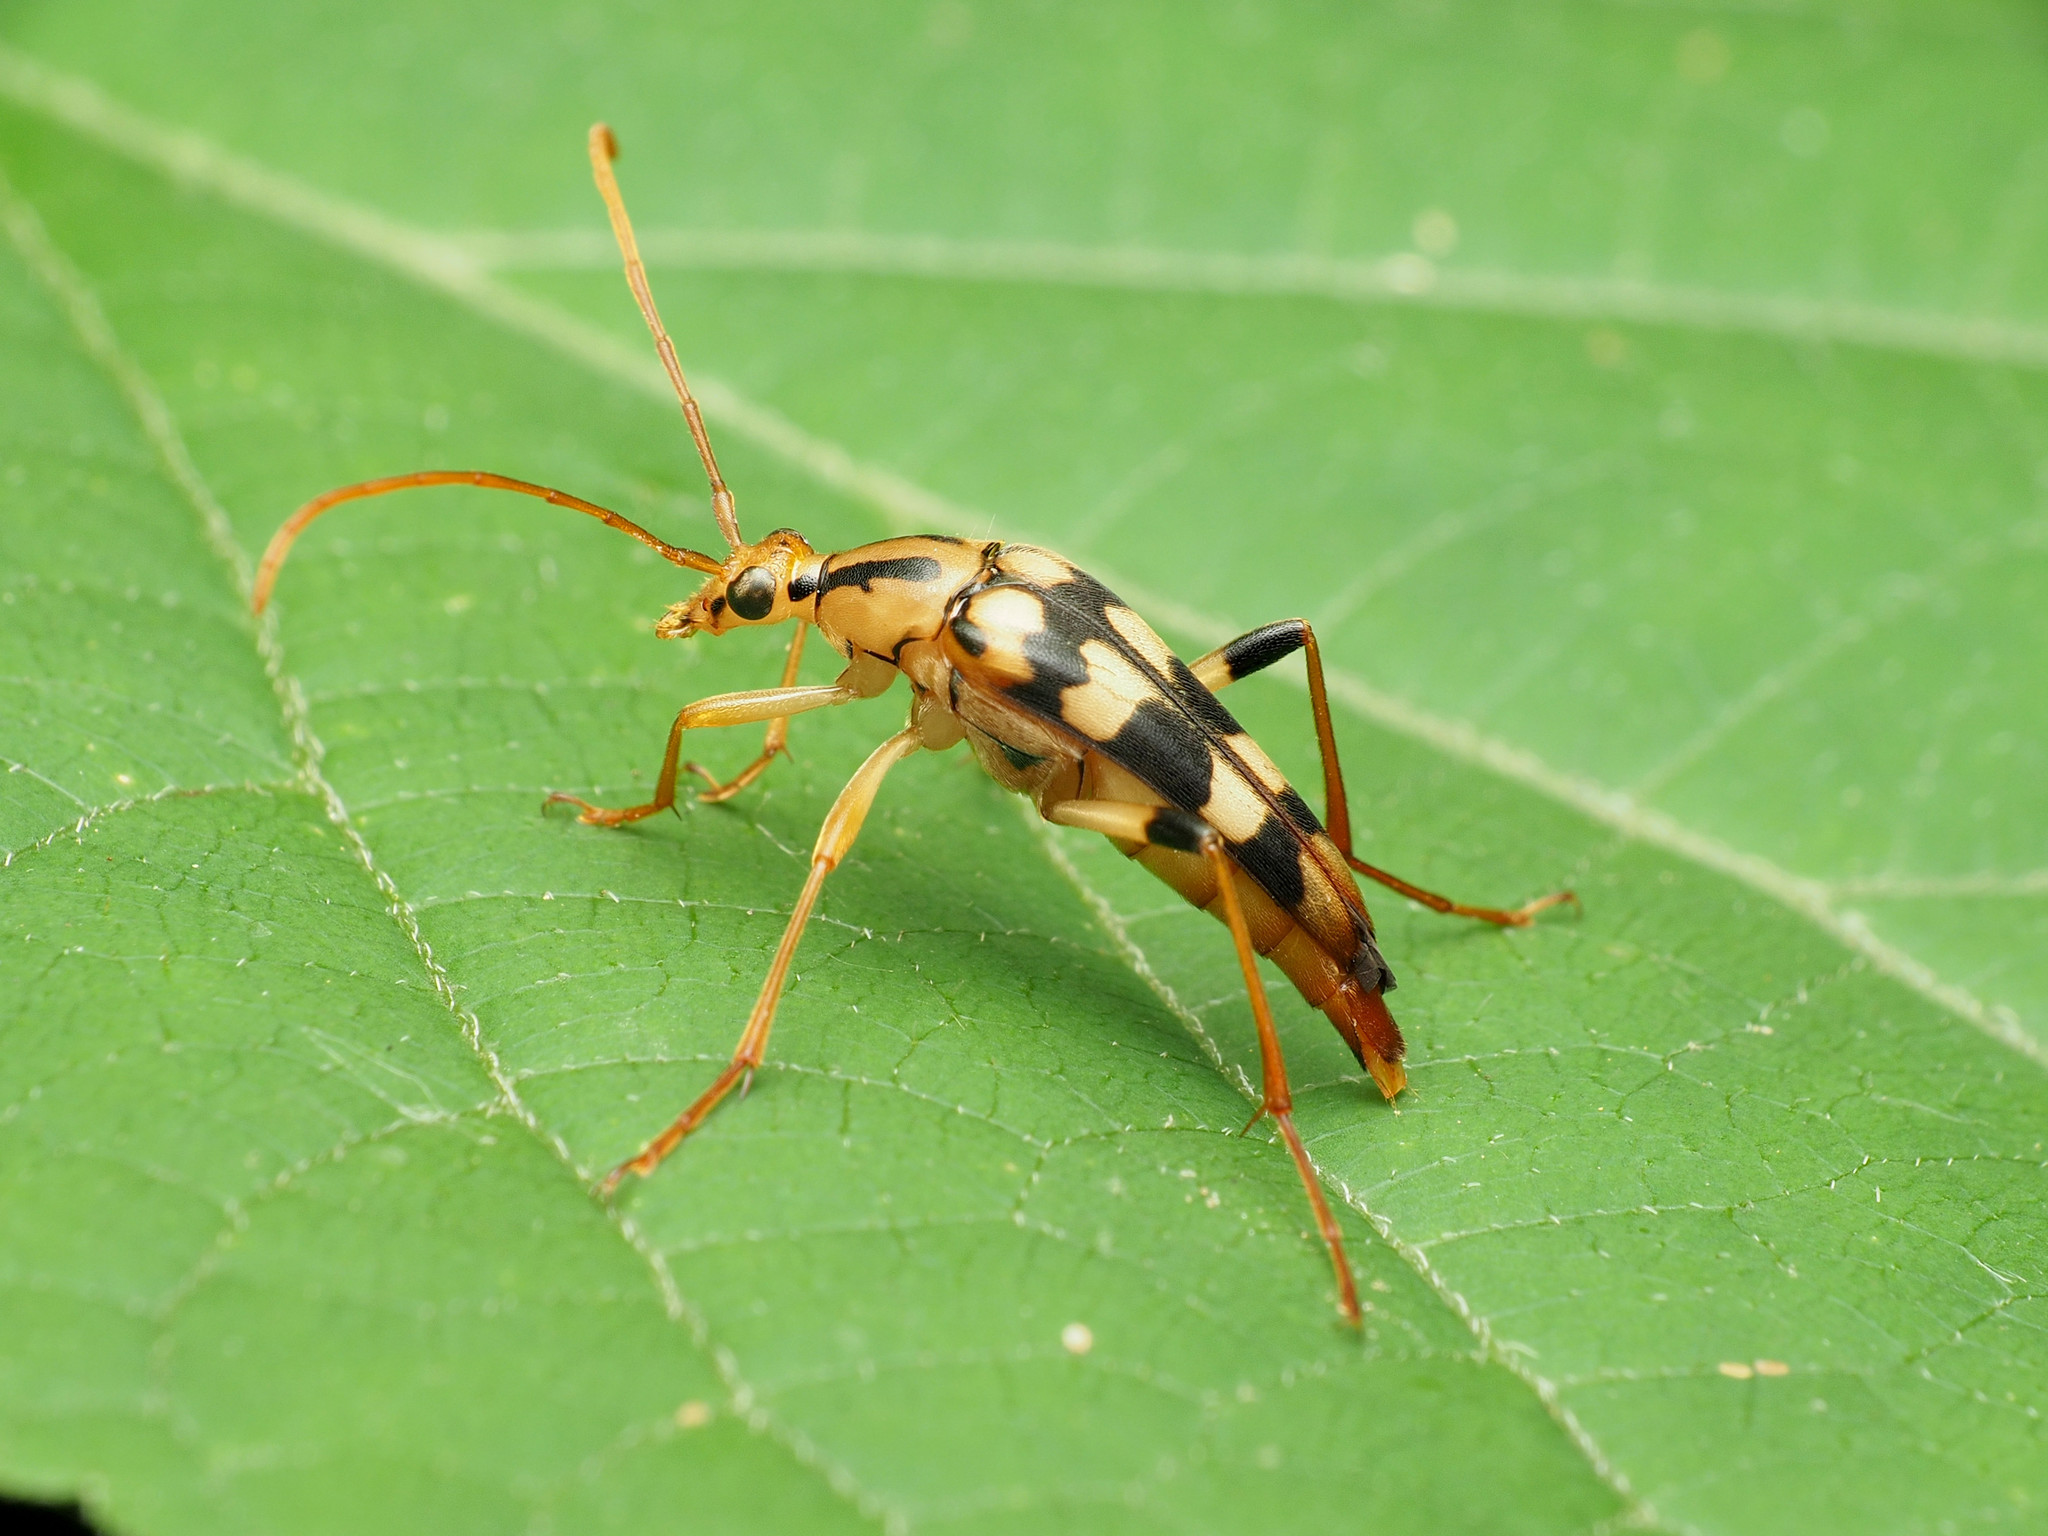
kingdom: Animalia
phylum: Arthropoda
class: Insecta
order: Coleoptera
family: Cerambycidae
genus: Strangalia
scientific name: Strangalia luteicornis
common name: Yellow-horned flower longhorn beetle
